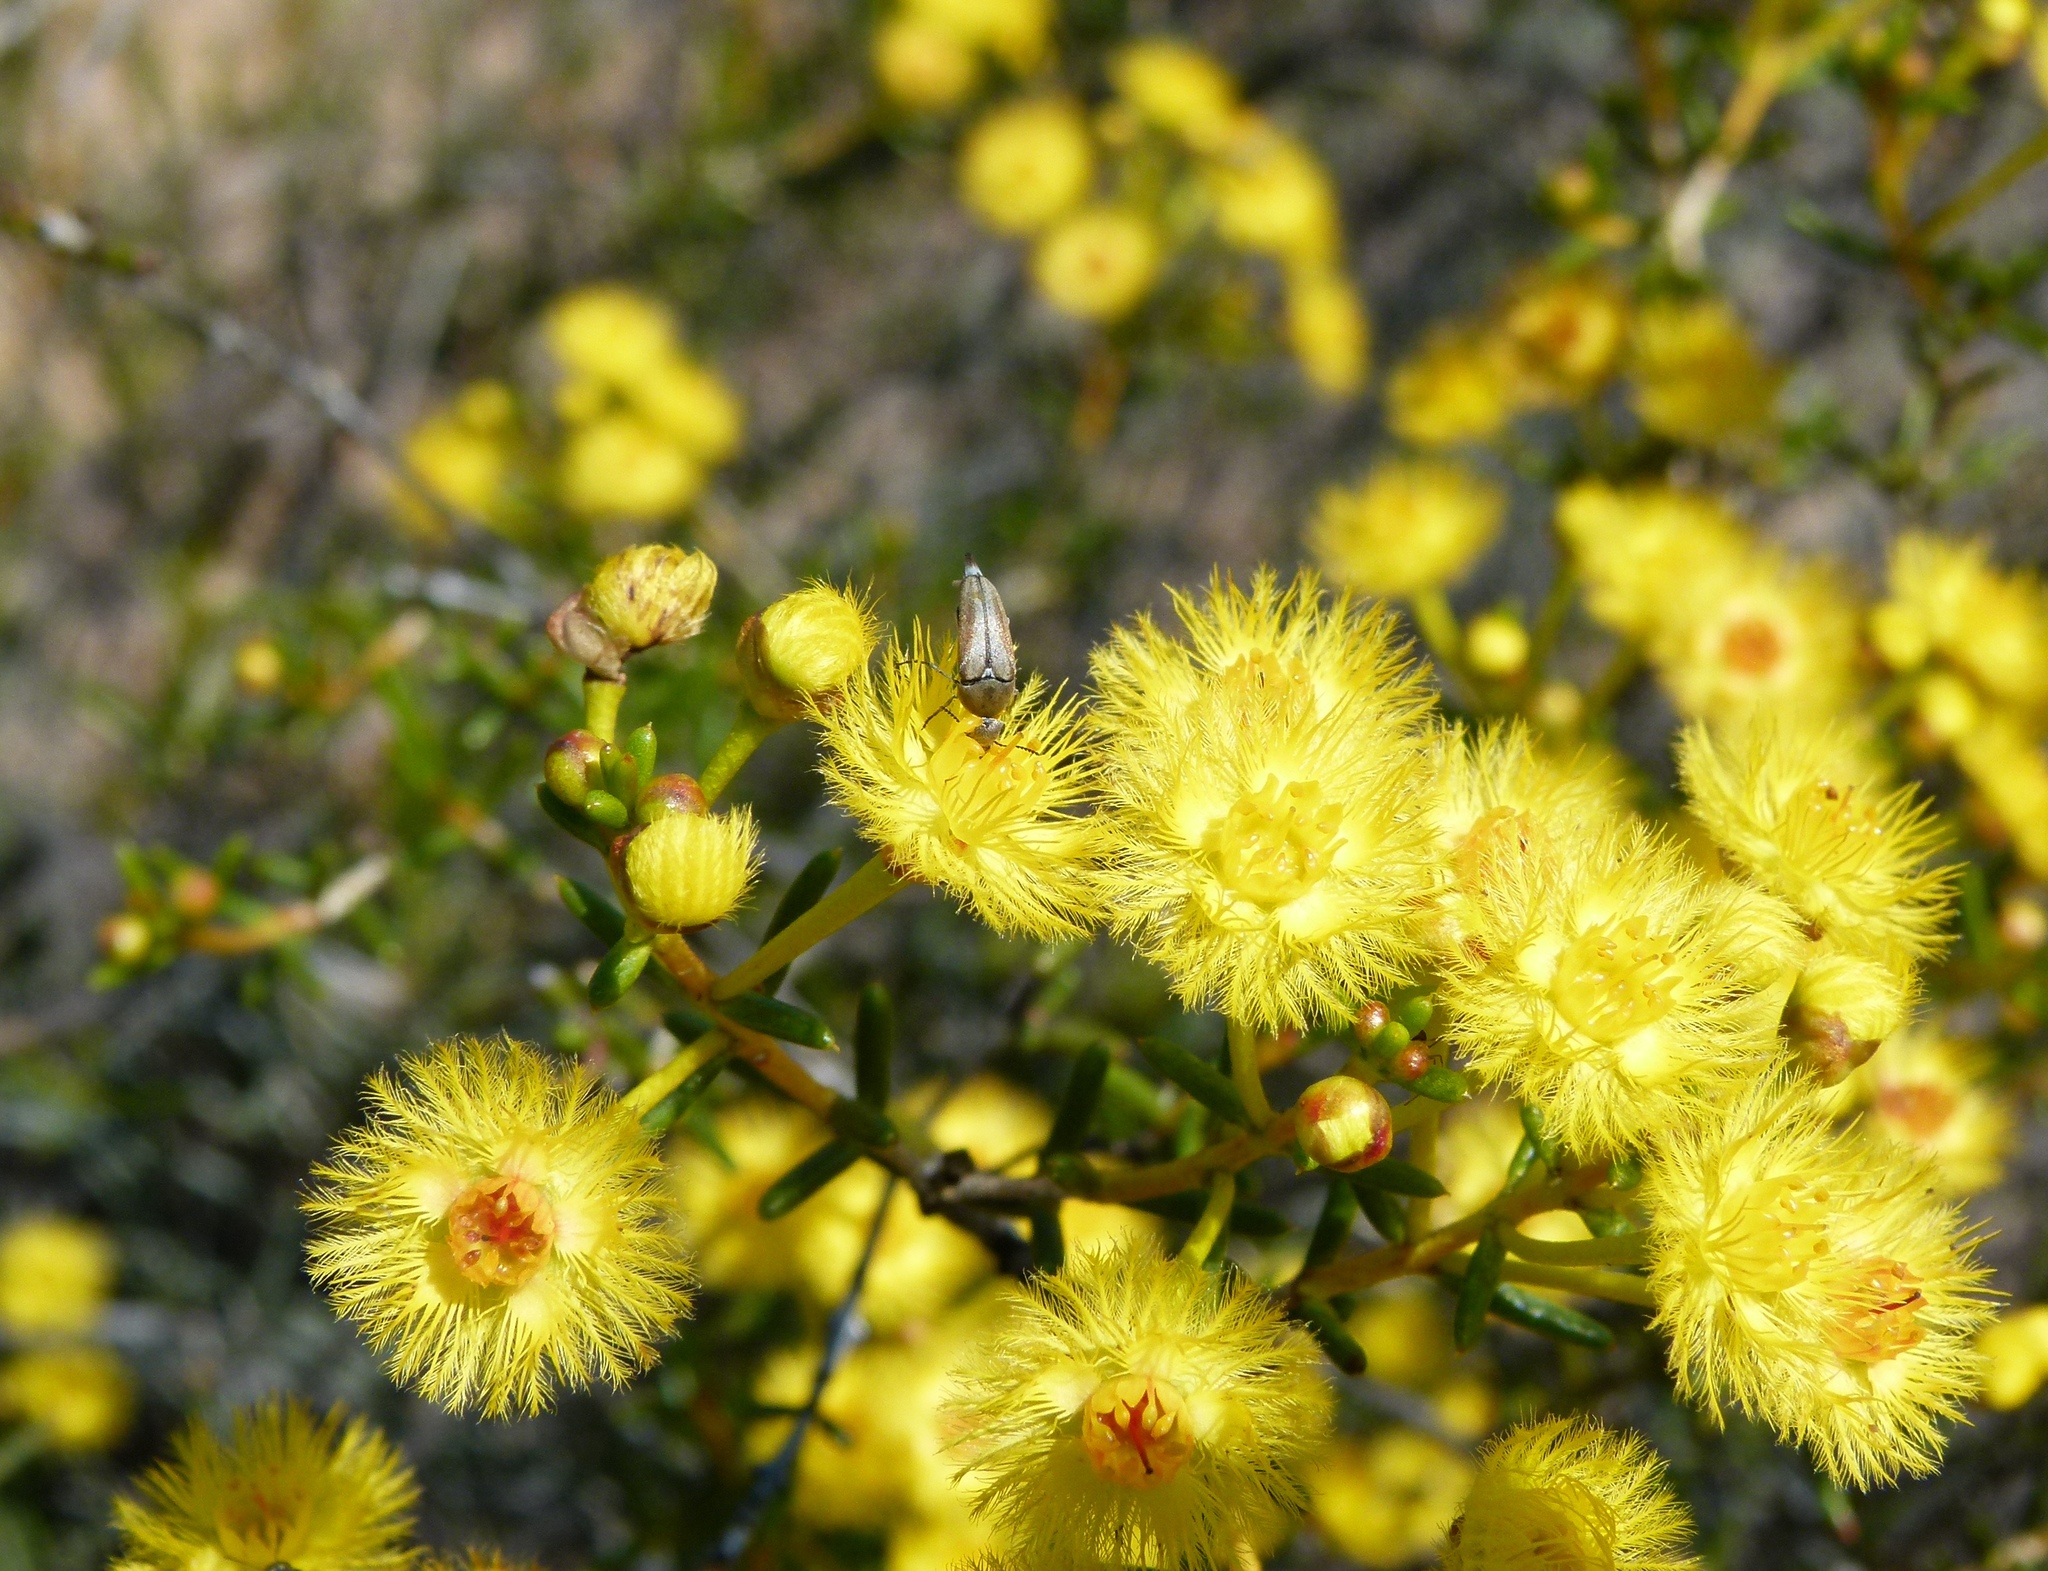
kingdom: Plantae
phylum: Tracheophyta
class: Magnoliopsida
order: Myrtales
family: Myrtaceae
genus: Verticordia
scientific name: Verticordia chrysantha
